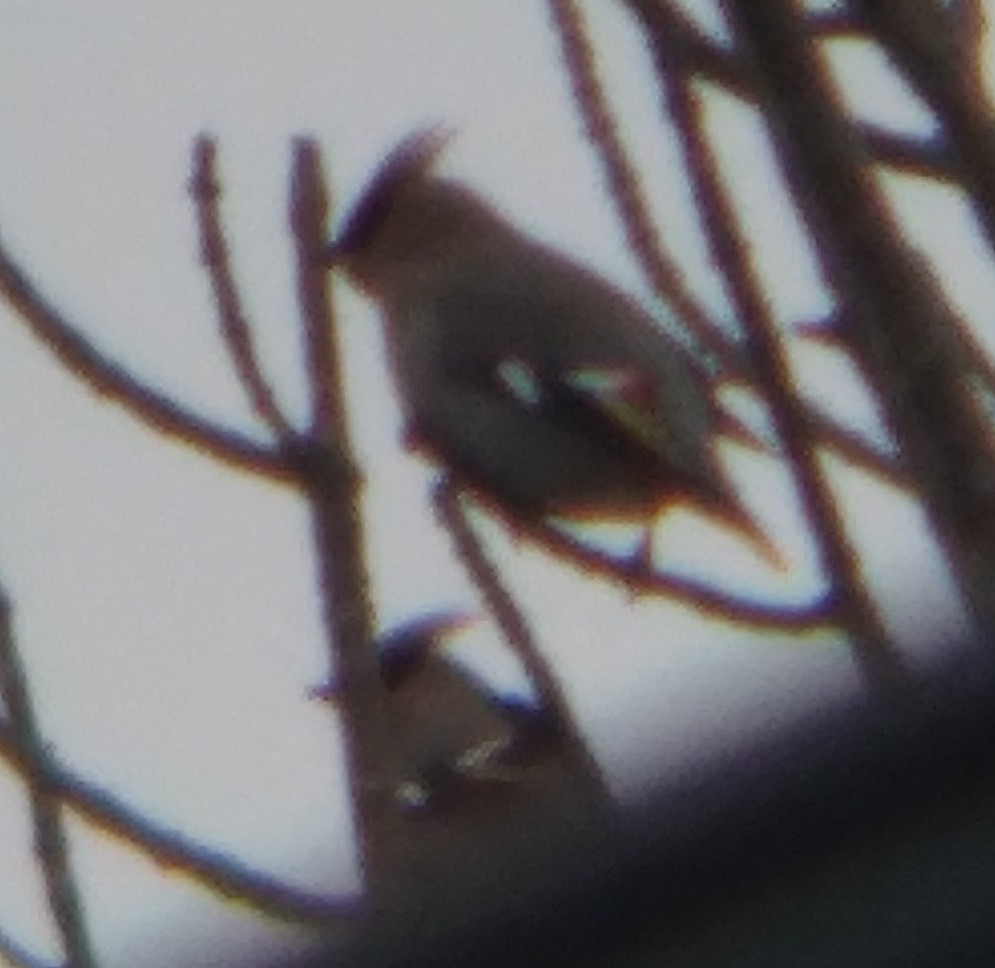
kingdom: Animalia
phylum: Chordata
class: Aves
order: Passeriformes
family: Bombycillidae
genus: Bombycilla
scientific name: Bombycilla garrulus
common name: Bohemian waxwing
